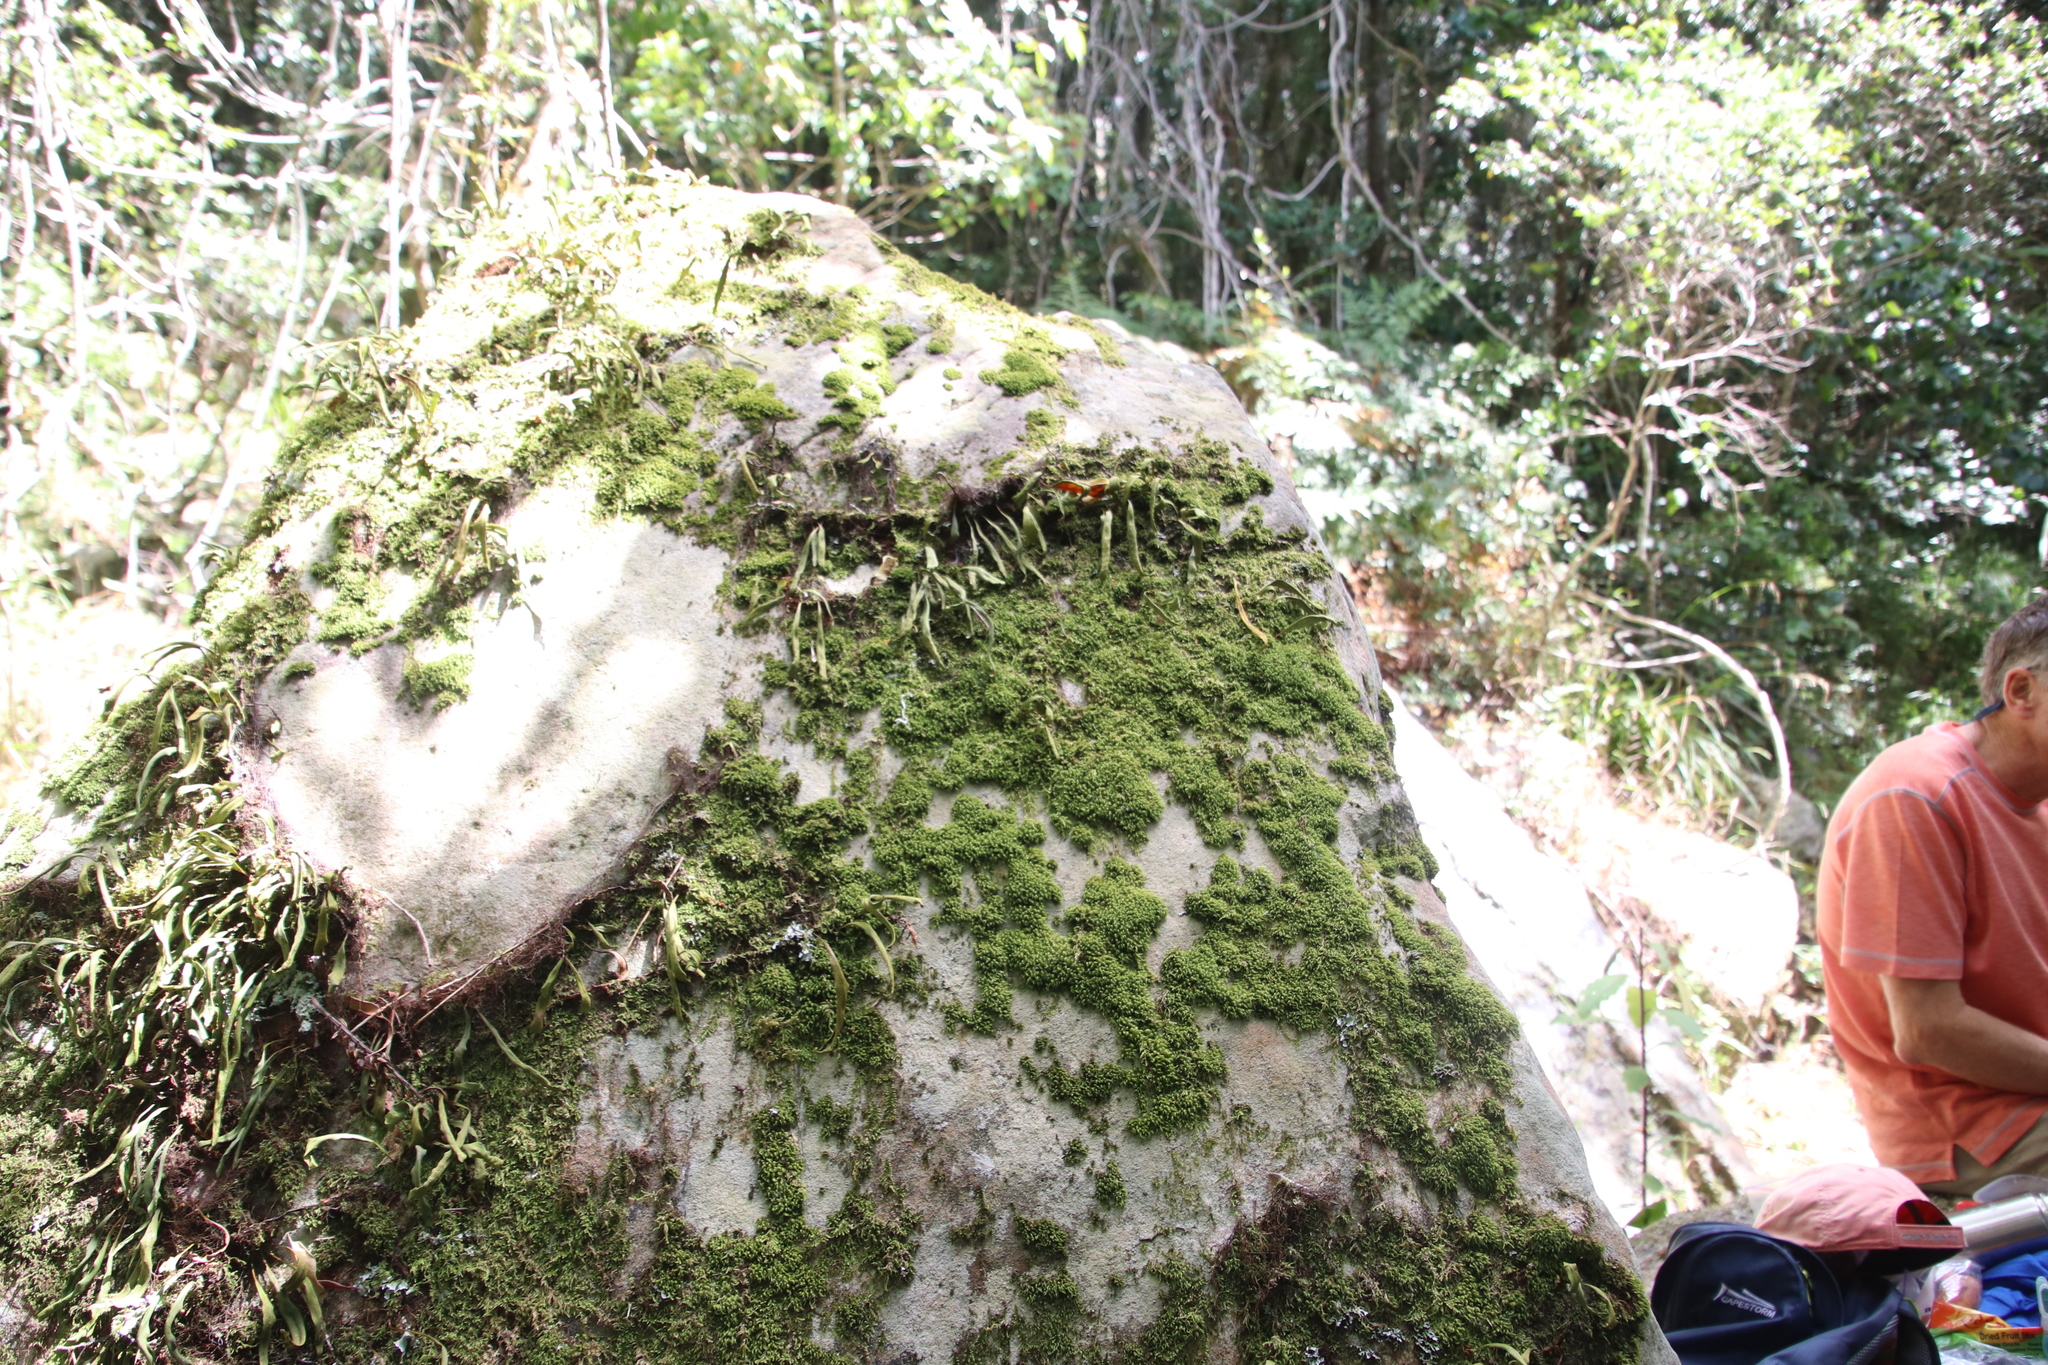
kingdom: Plantae
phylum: Bryophyta
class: Bryopsida
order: Dicranales
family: Dicranaceae
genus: Leucoloma
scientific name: Leucoloma sprengelianum
